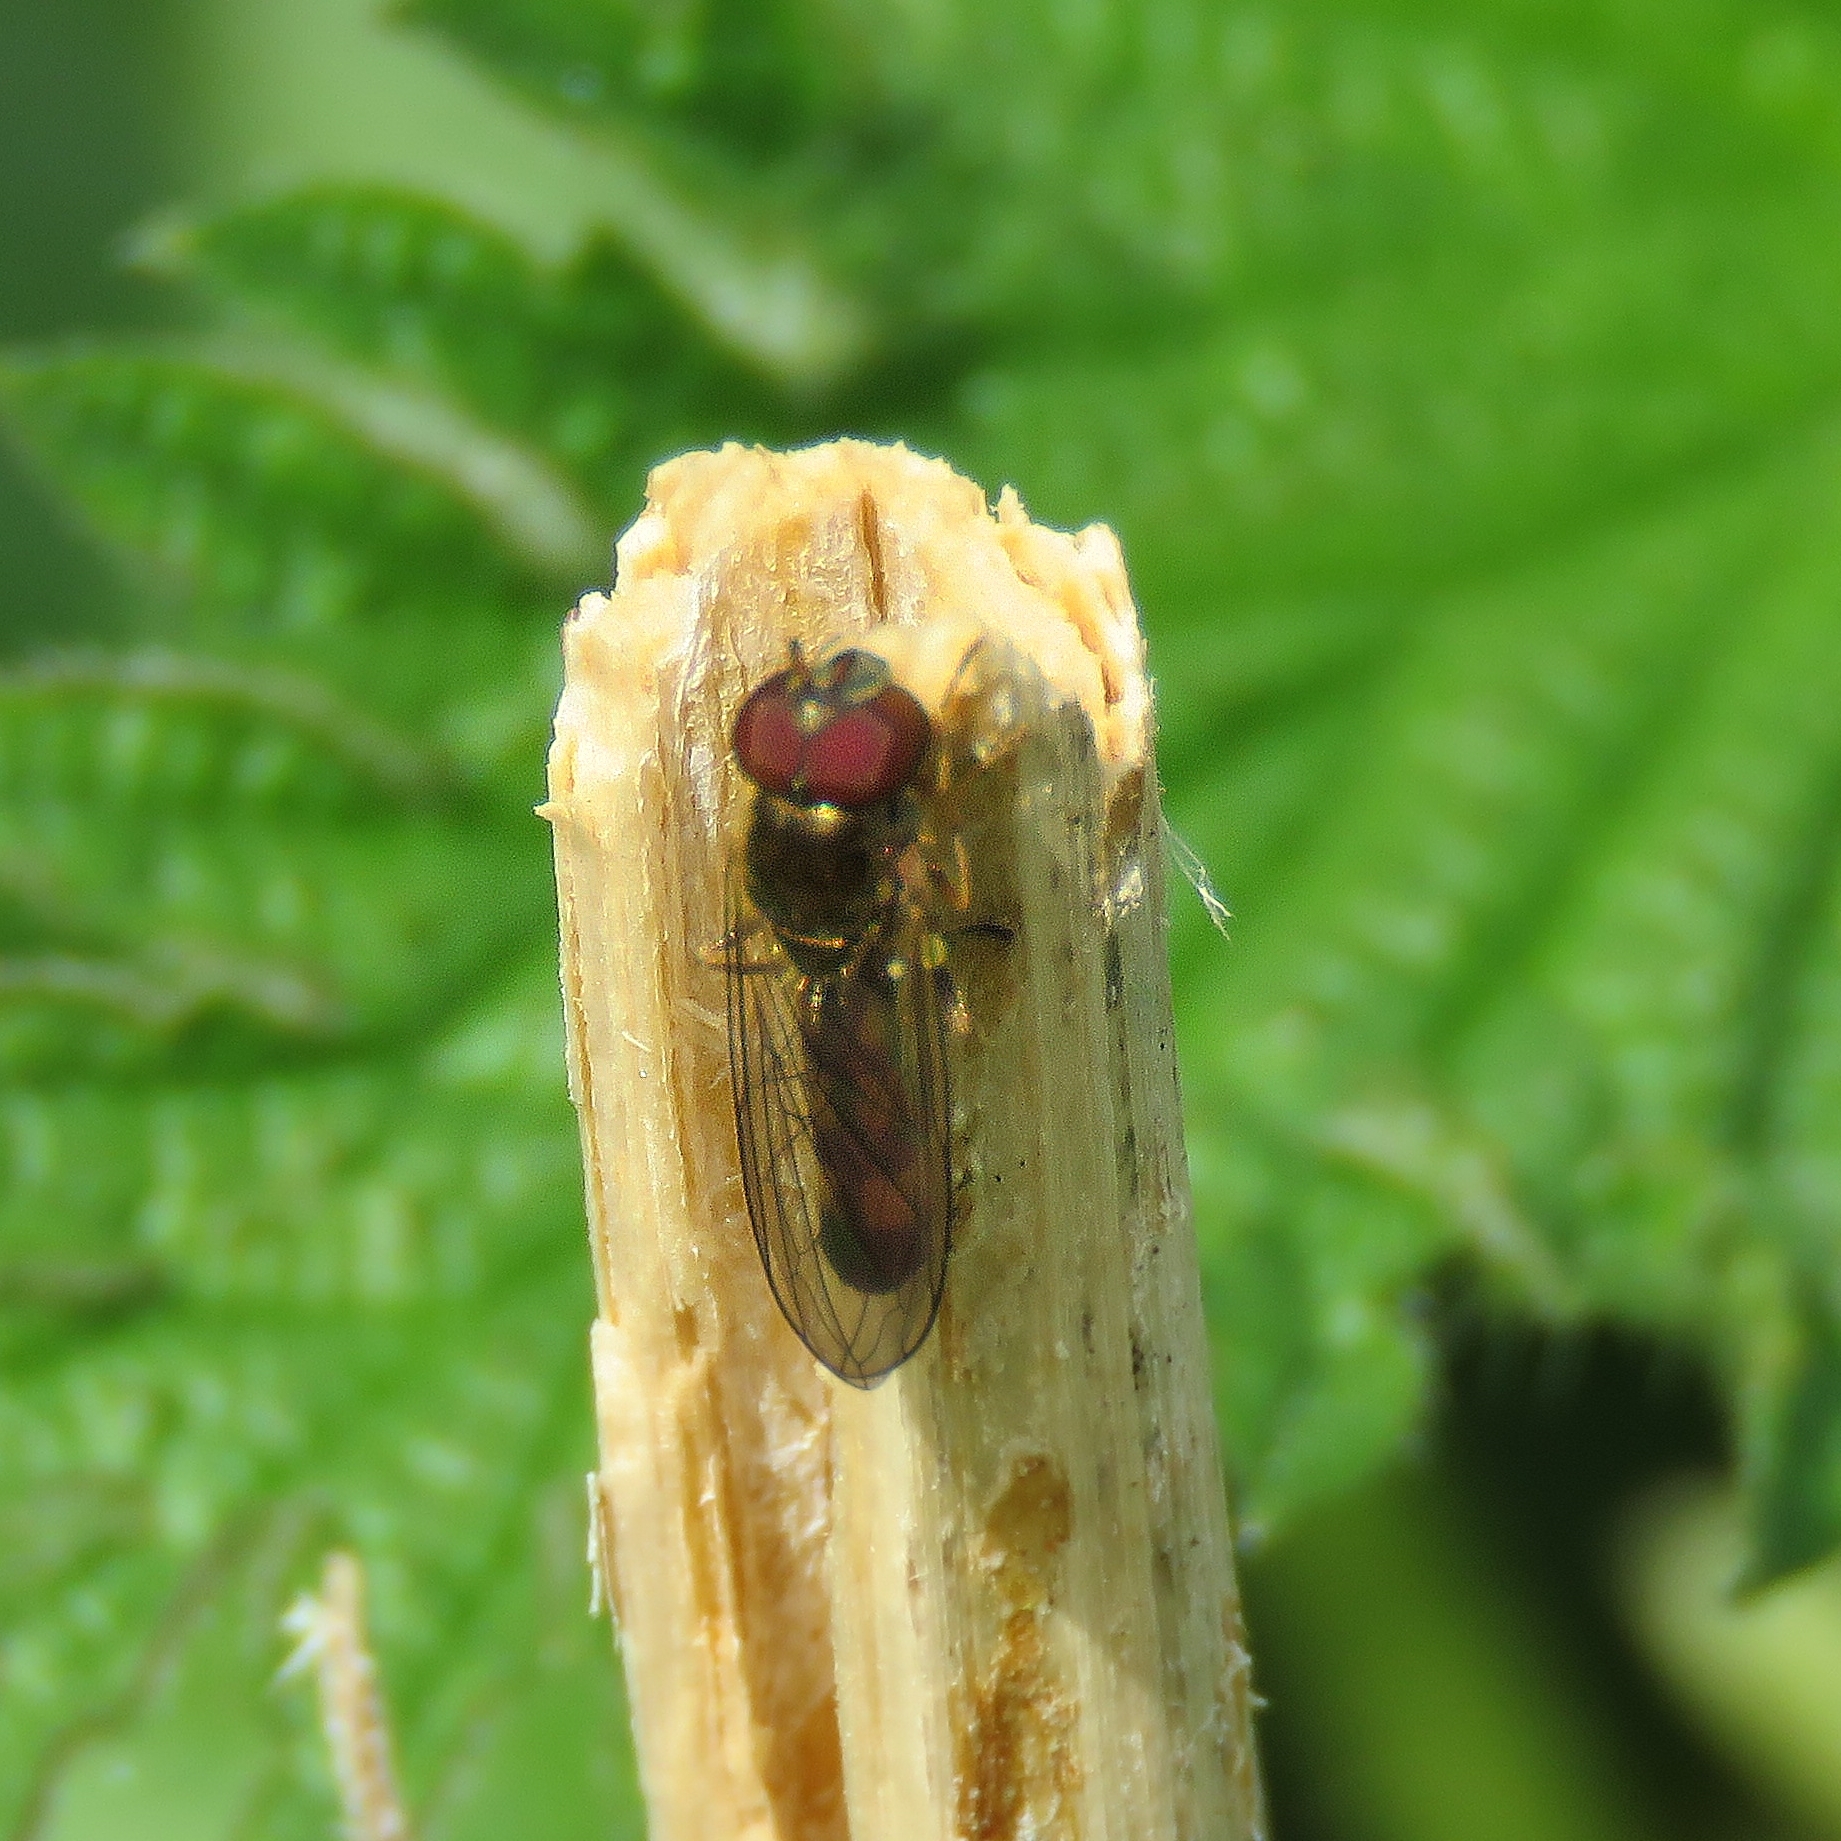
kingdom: Animalia
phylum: Arthropoda
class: Insecta
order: Diptera
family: Syrphidae
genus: Melanostoma
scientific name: Melanostoma scalare
